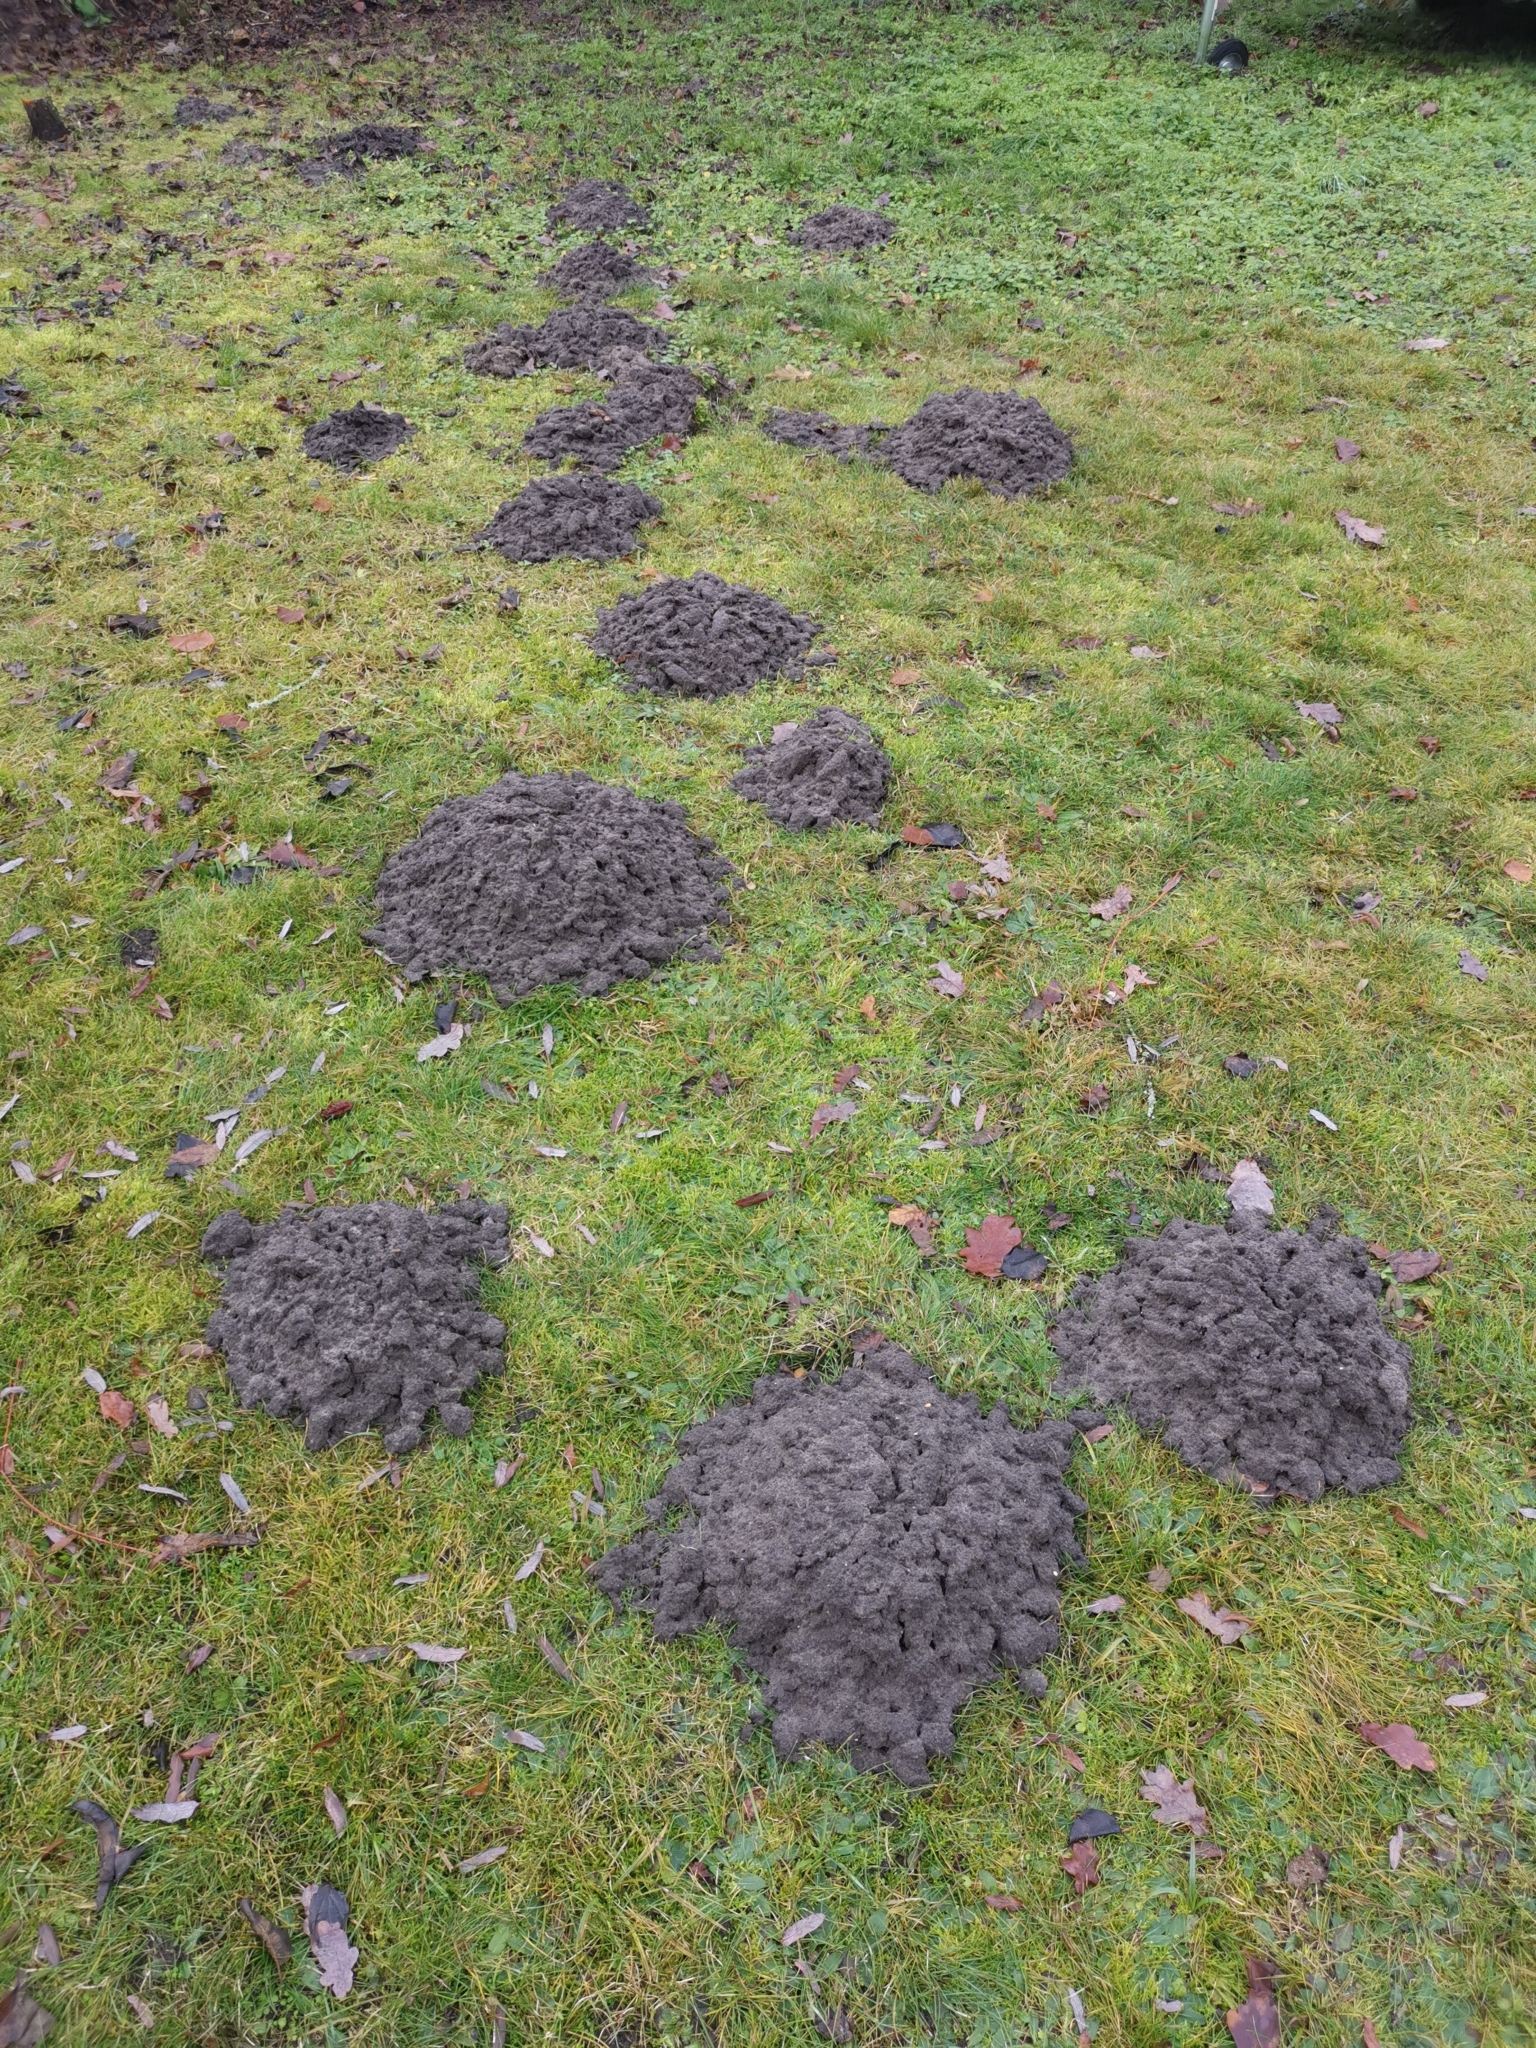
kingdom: Animalia
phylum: Chordata
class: Mammalia
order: Soricomorpha
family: Talpidae
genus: Talpa
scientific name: Talpa europaea
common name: European mole
